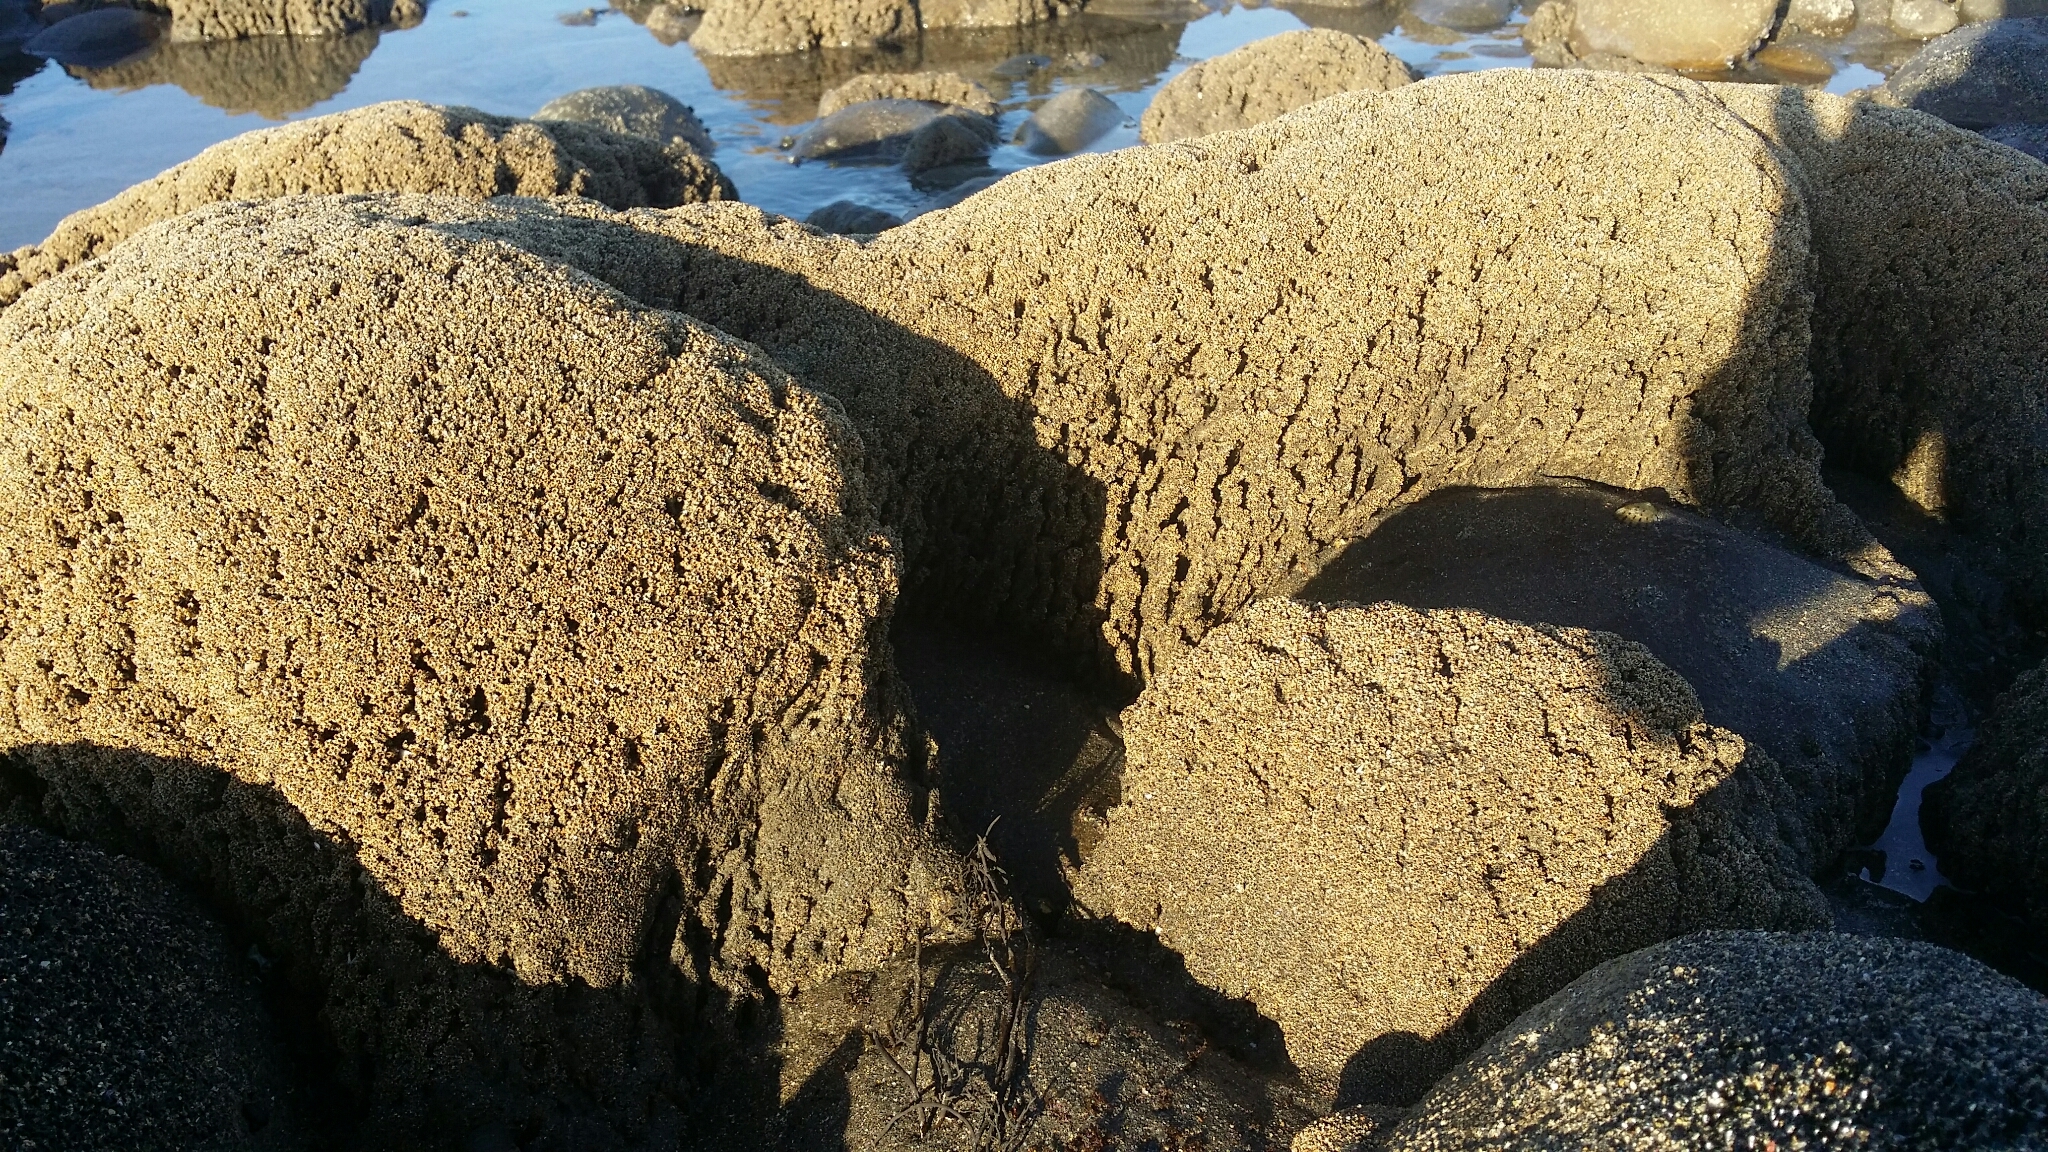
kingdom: Animalia
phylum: Annelida
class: Polychaeta
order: Sabellida
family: Sabellariidae
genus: Neosabellaria
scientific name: Neosabellaria kaiparaensis
